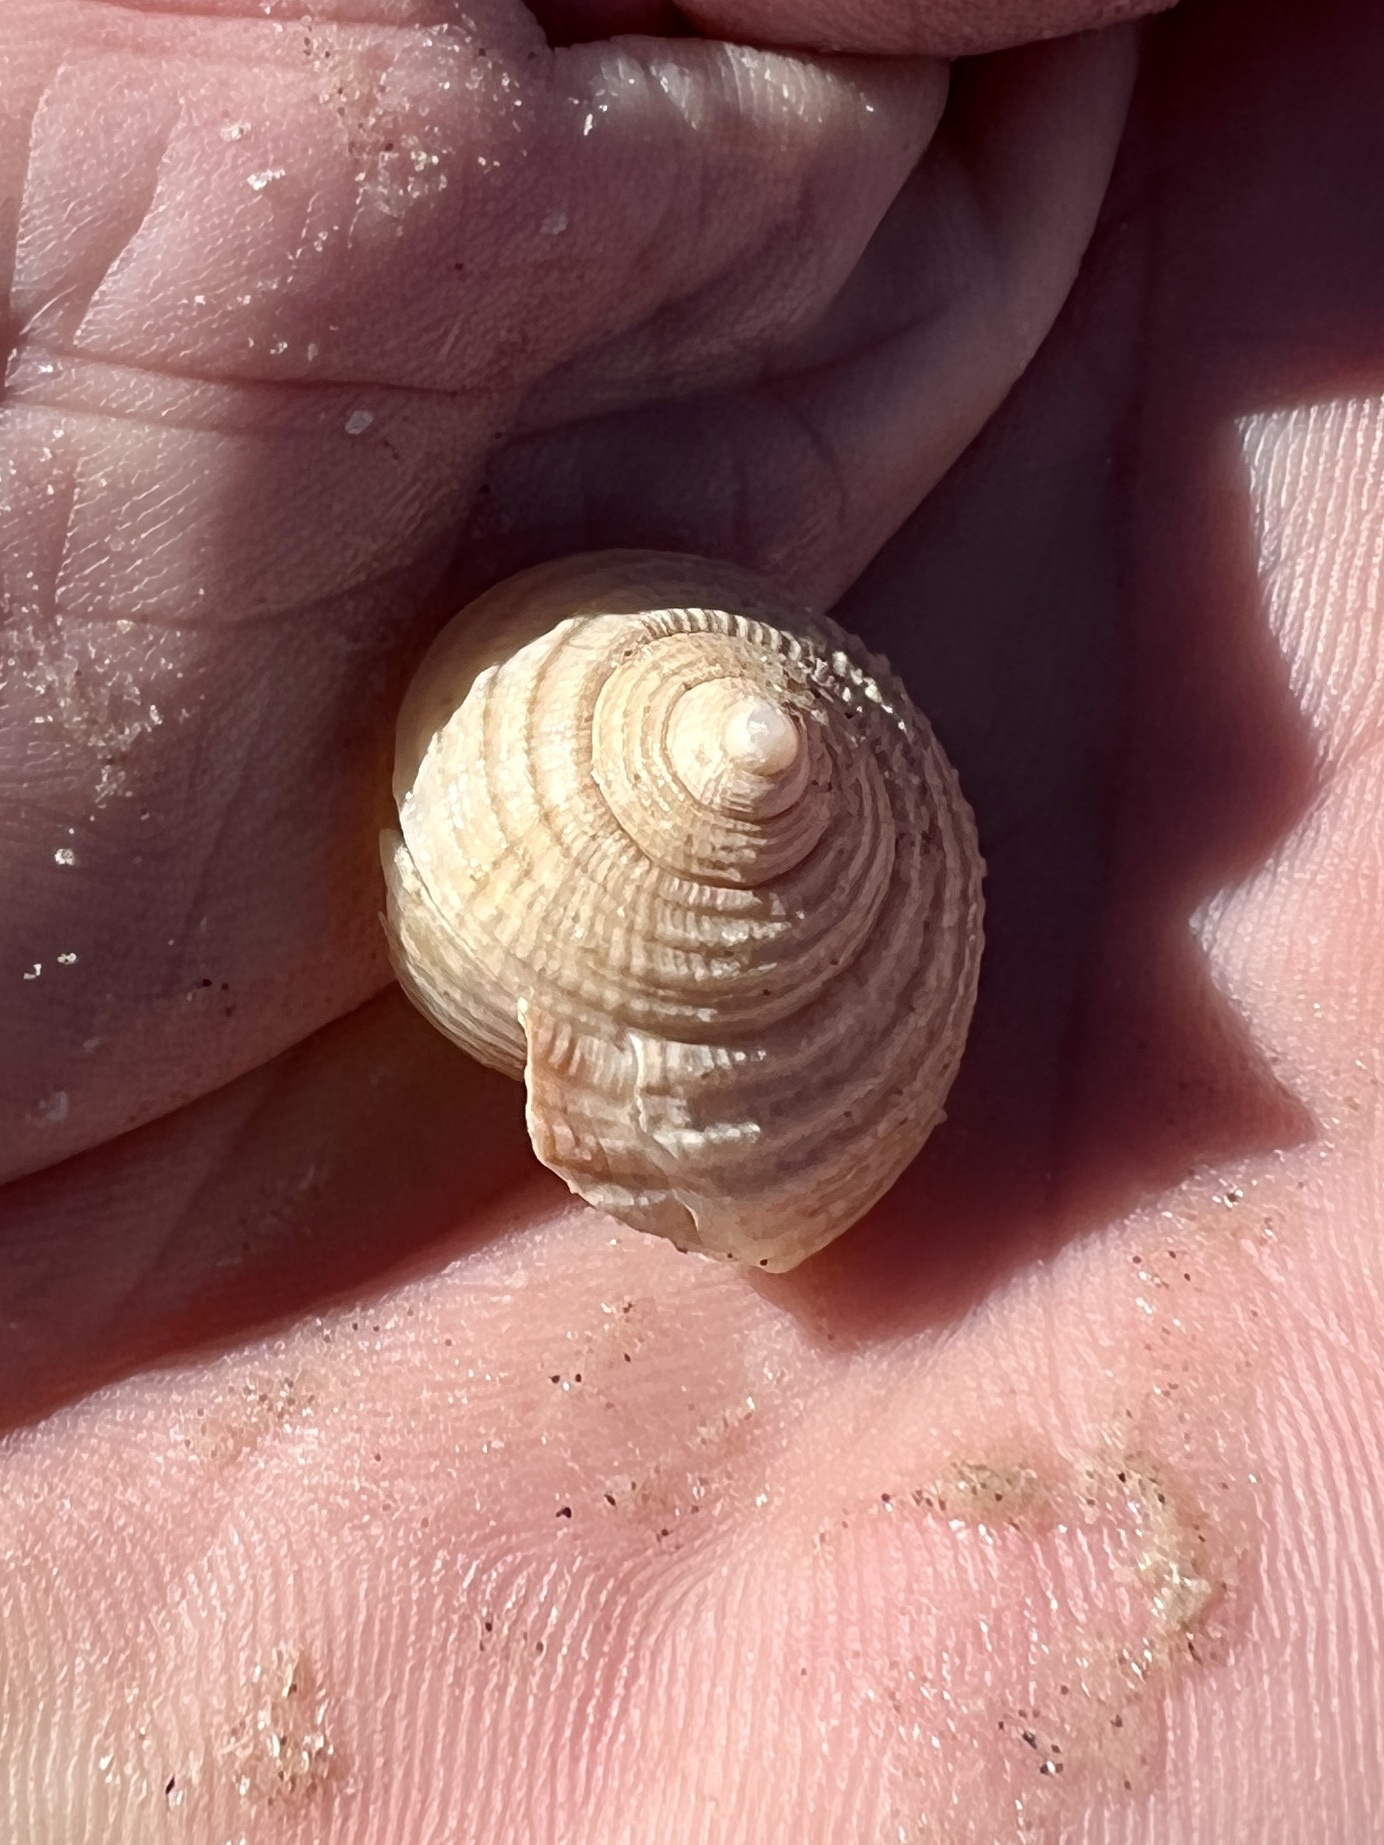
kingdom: Animalia
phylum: Mollusca
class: Gastropoda
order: Littorinimorpha
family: Cassidae
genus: Semicassis
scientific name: Semicassis granulata
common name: Scotch bonnet
